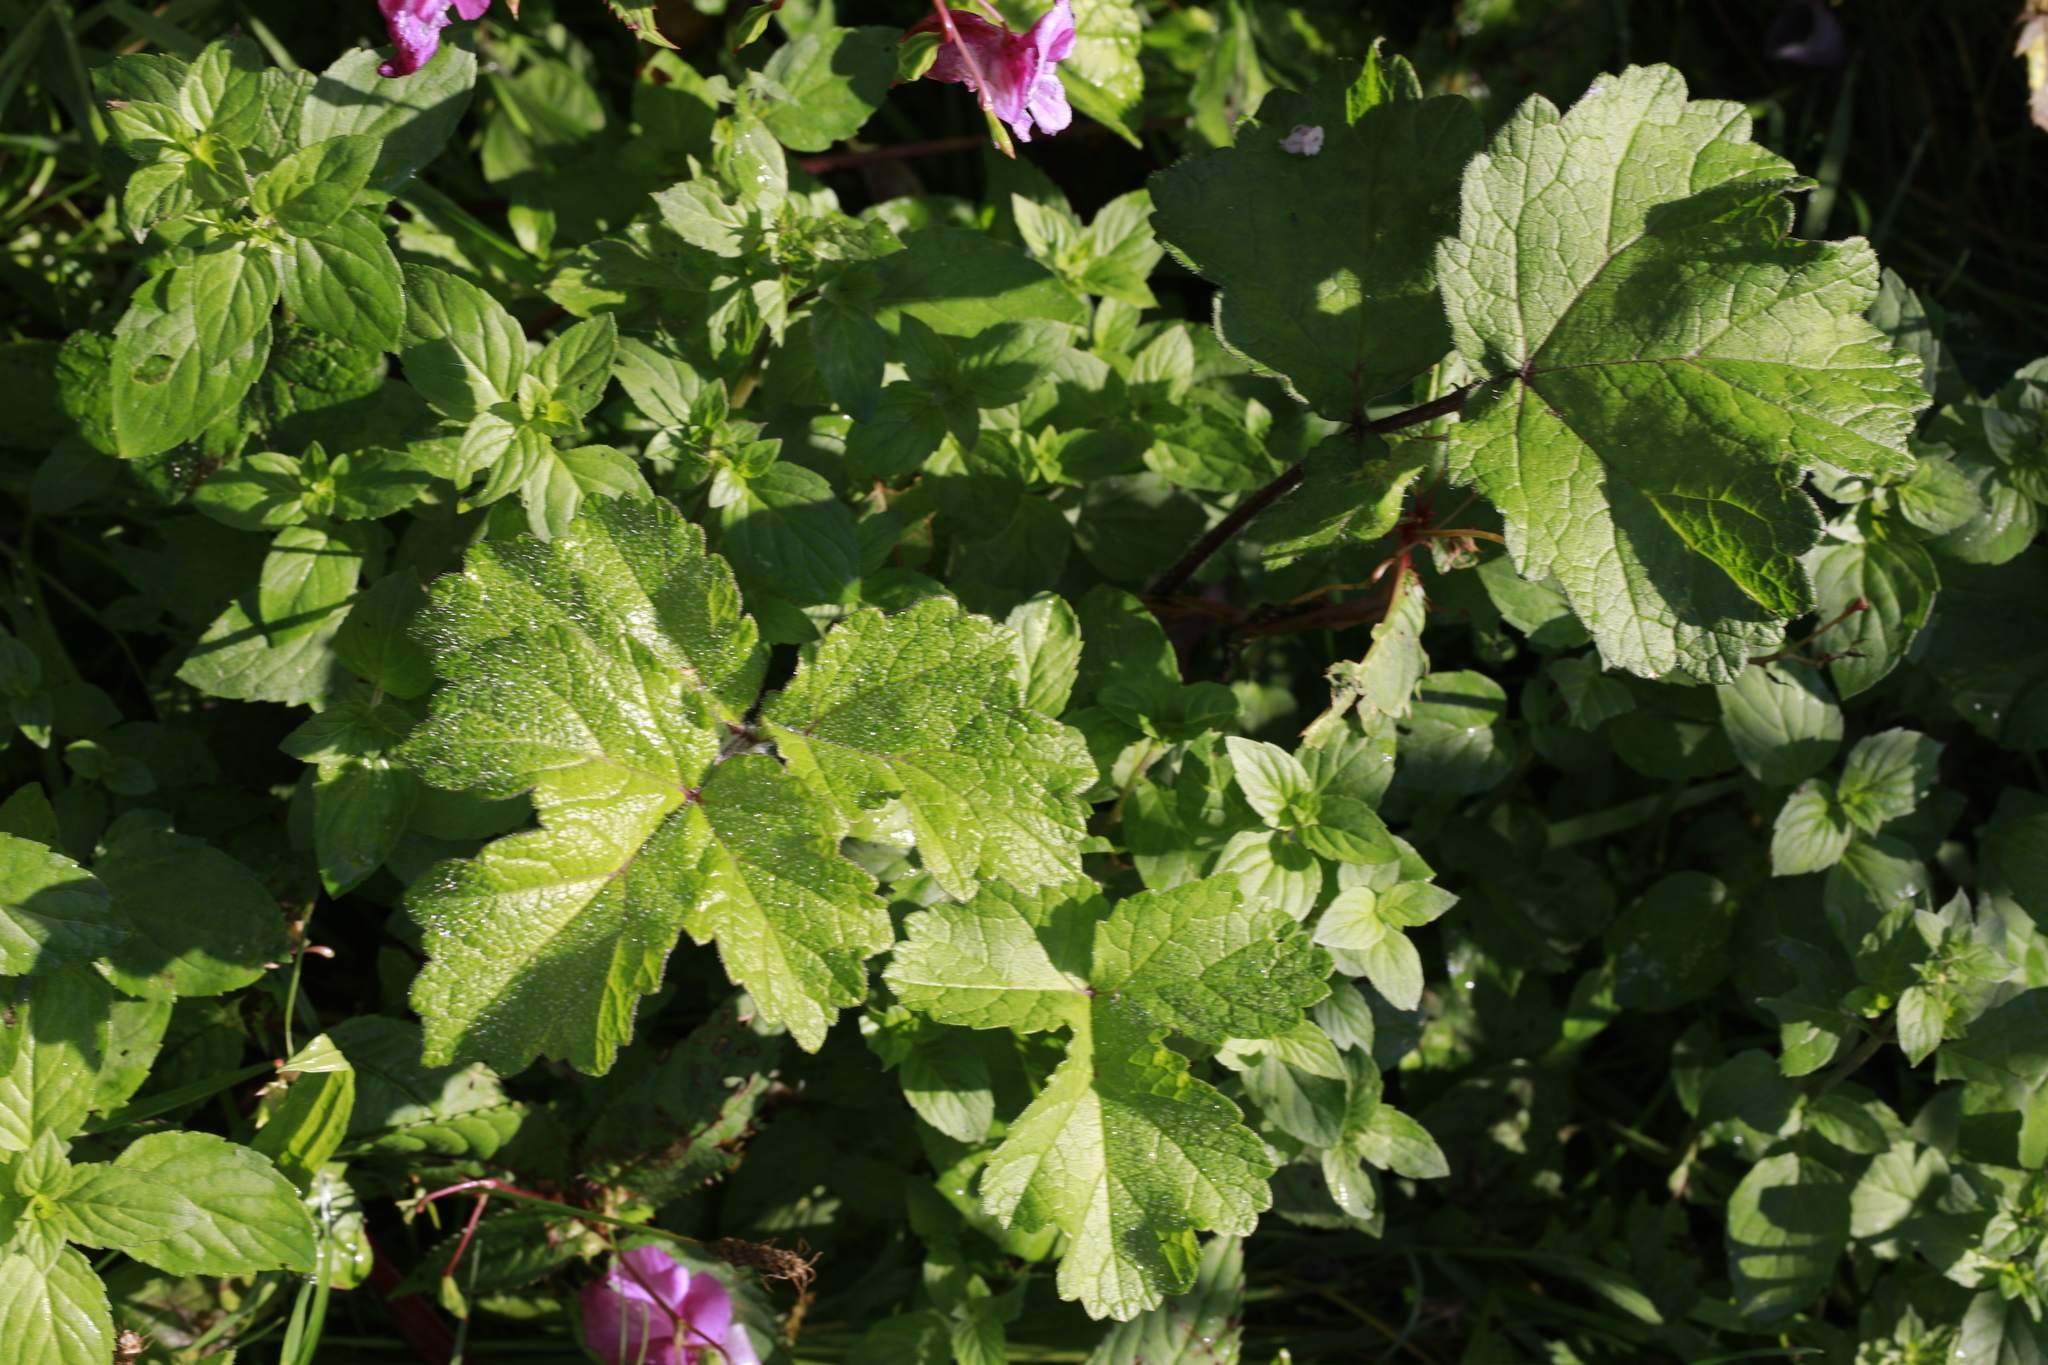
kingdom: Plantae
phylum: Tracheophyta
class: Magnoliopsida
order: Apiales
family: Apiaceae
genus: Heracleum
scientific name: Heracleum sphondylium
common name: Hogweed
